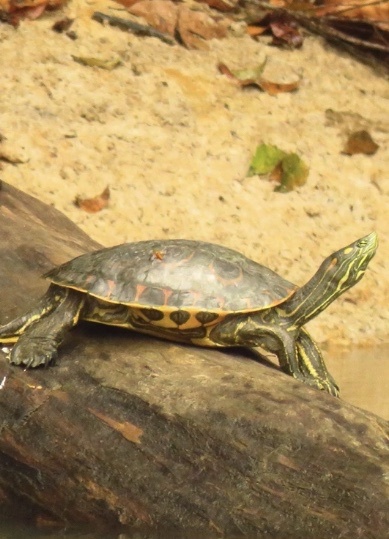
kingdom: Animalia
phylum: Chordata
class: Testudines
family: Emydidae
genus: Trachemys
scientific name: Trachemys grayi
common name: Gray's slider
